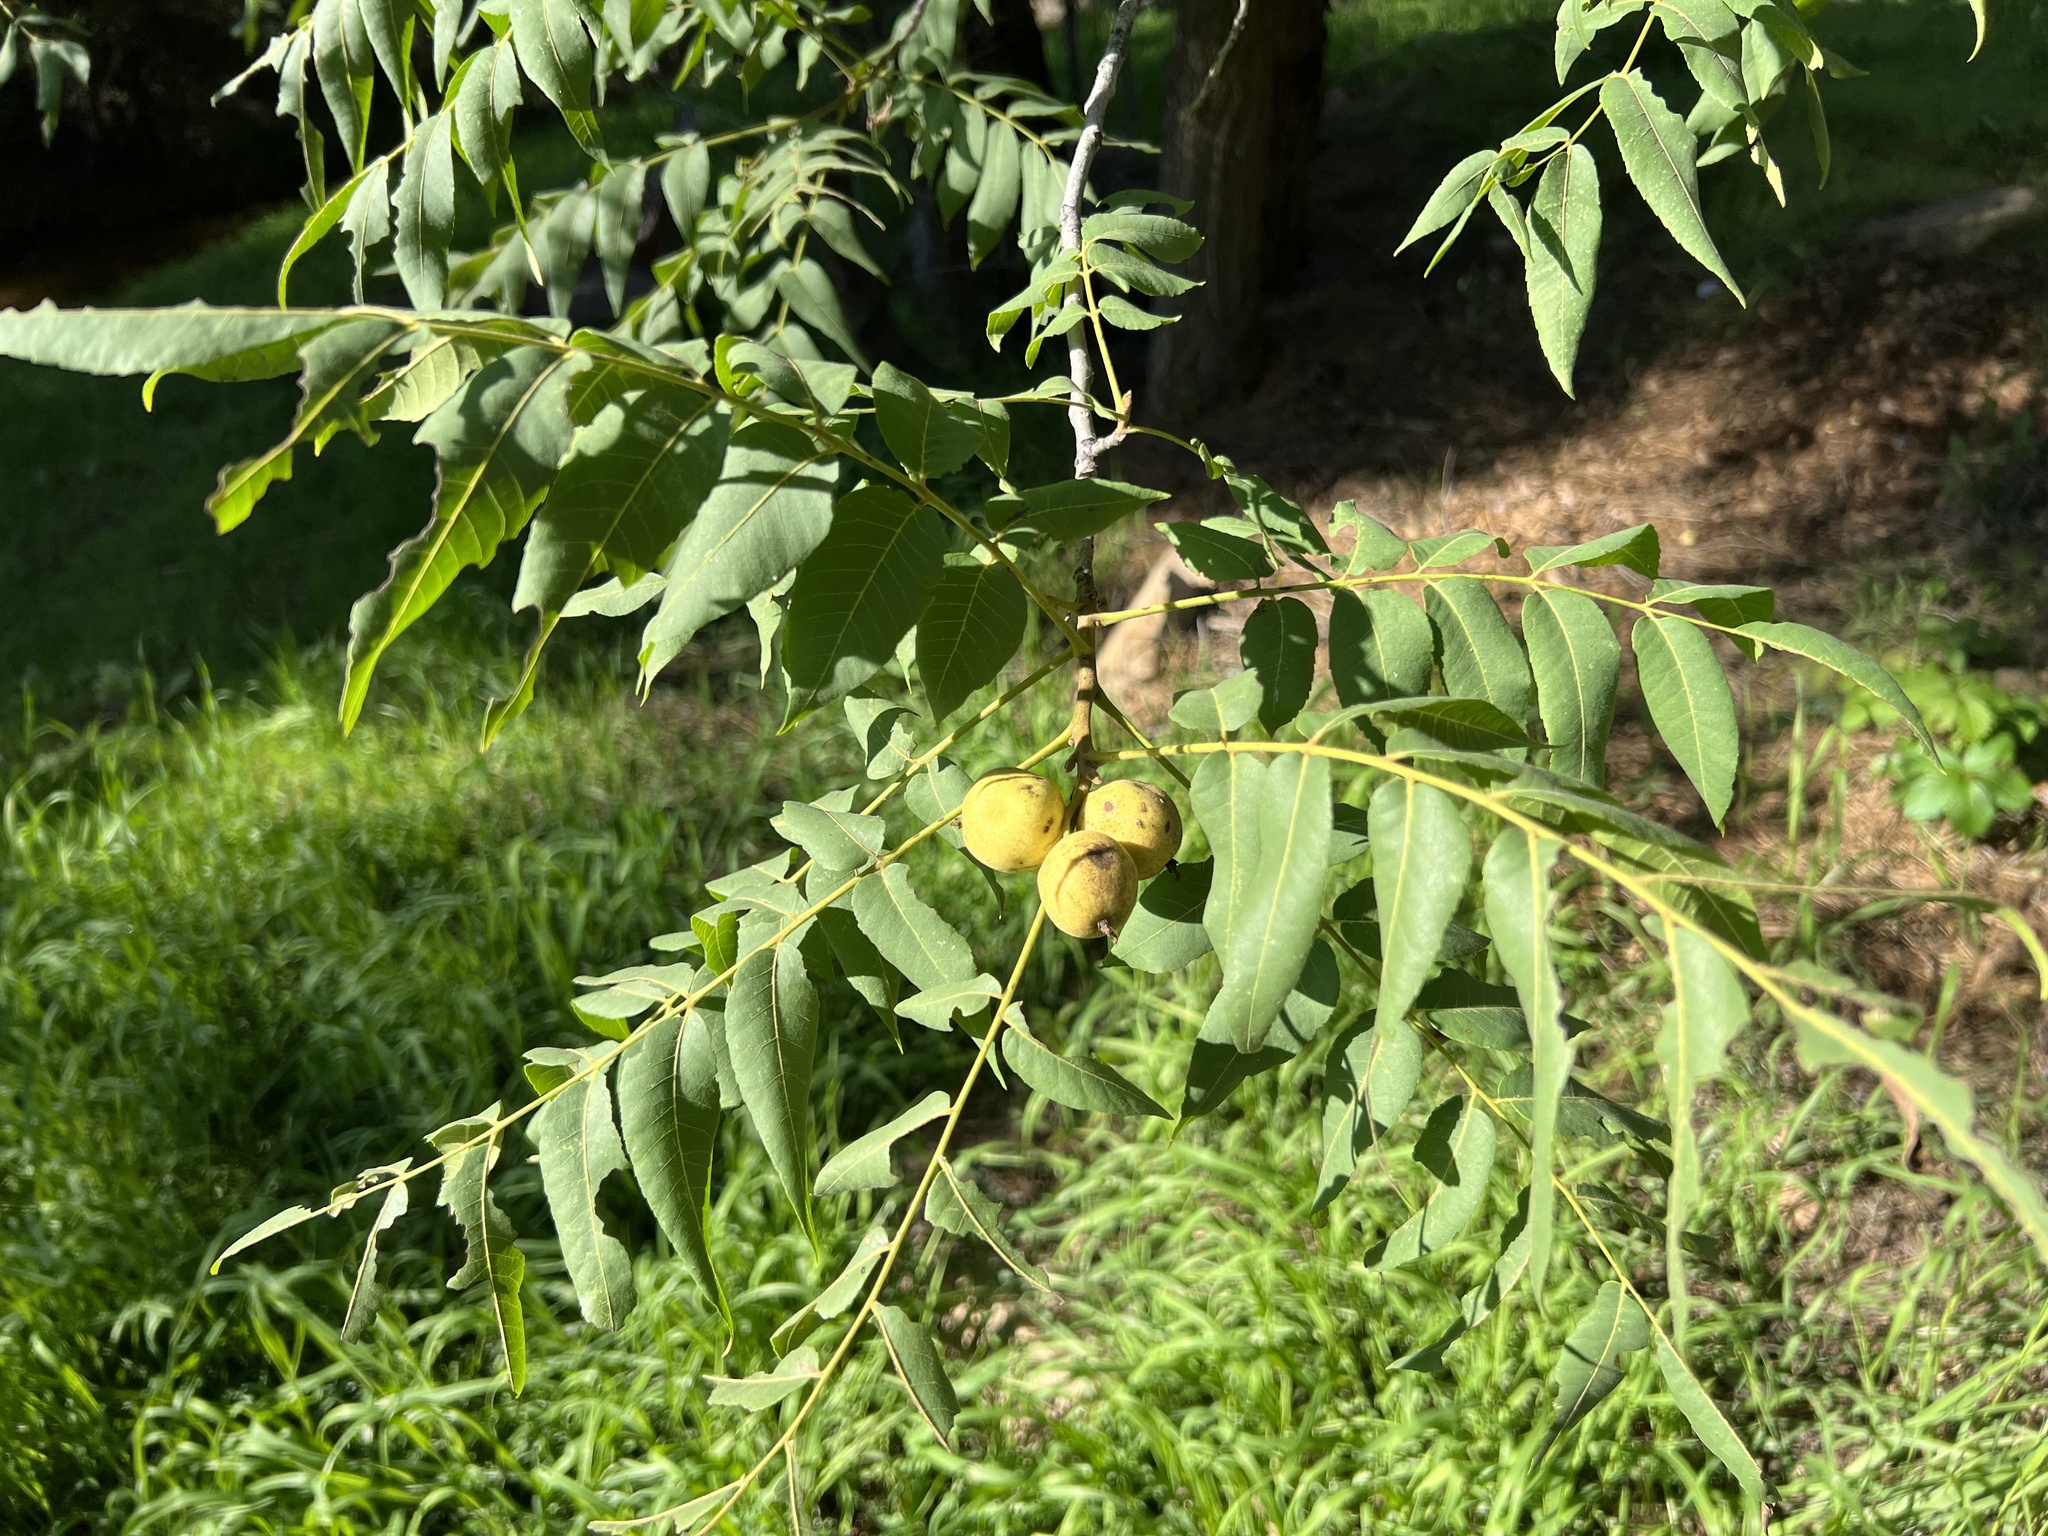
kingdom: Plantae
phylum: Tracheophyta
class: Magnoliopsida
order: Fagales
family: Juglandaceae
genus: Juglans
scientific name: Juglans major
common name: Arizona walnut
